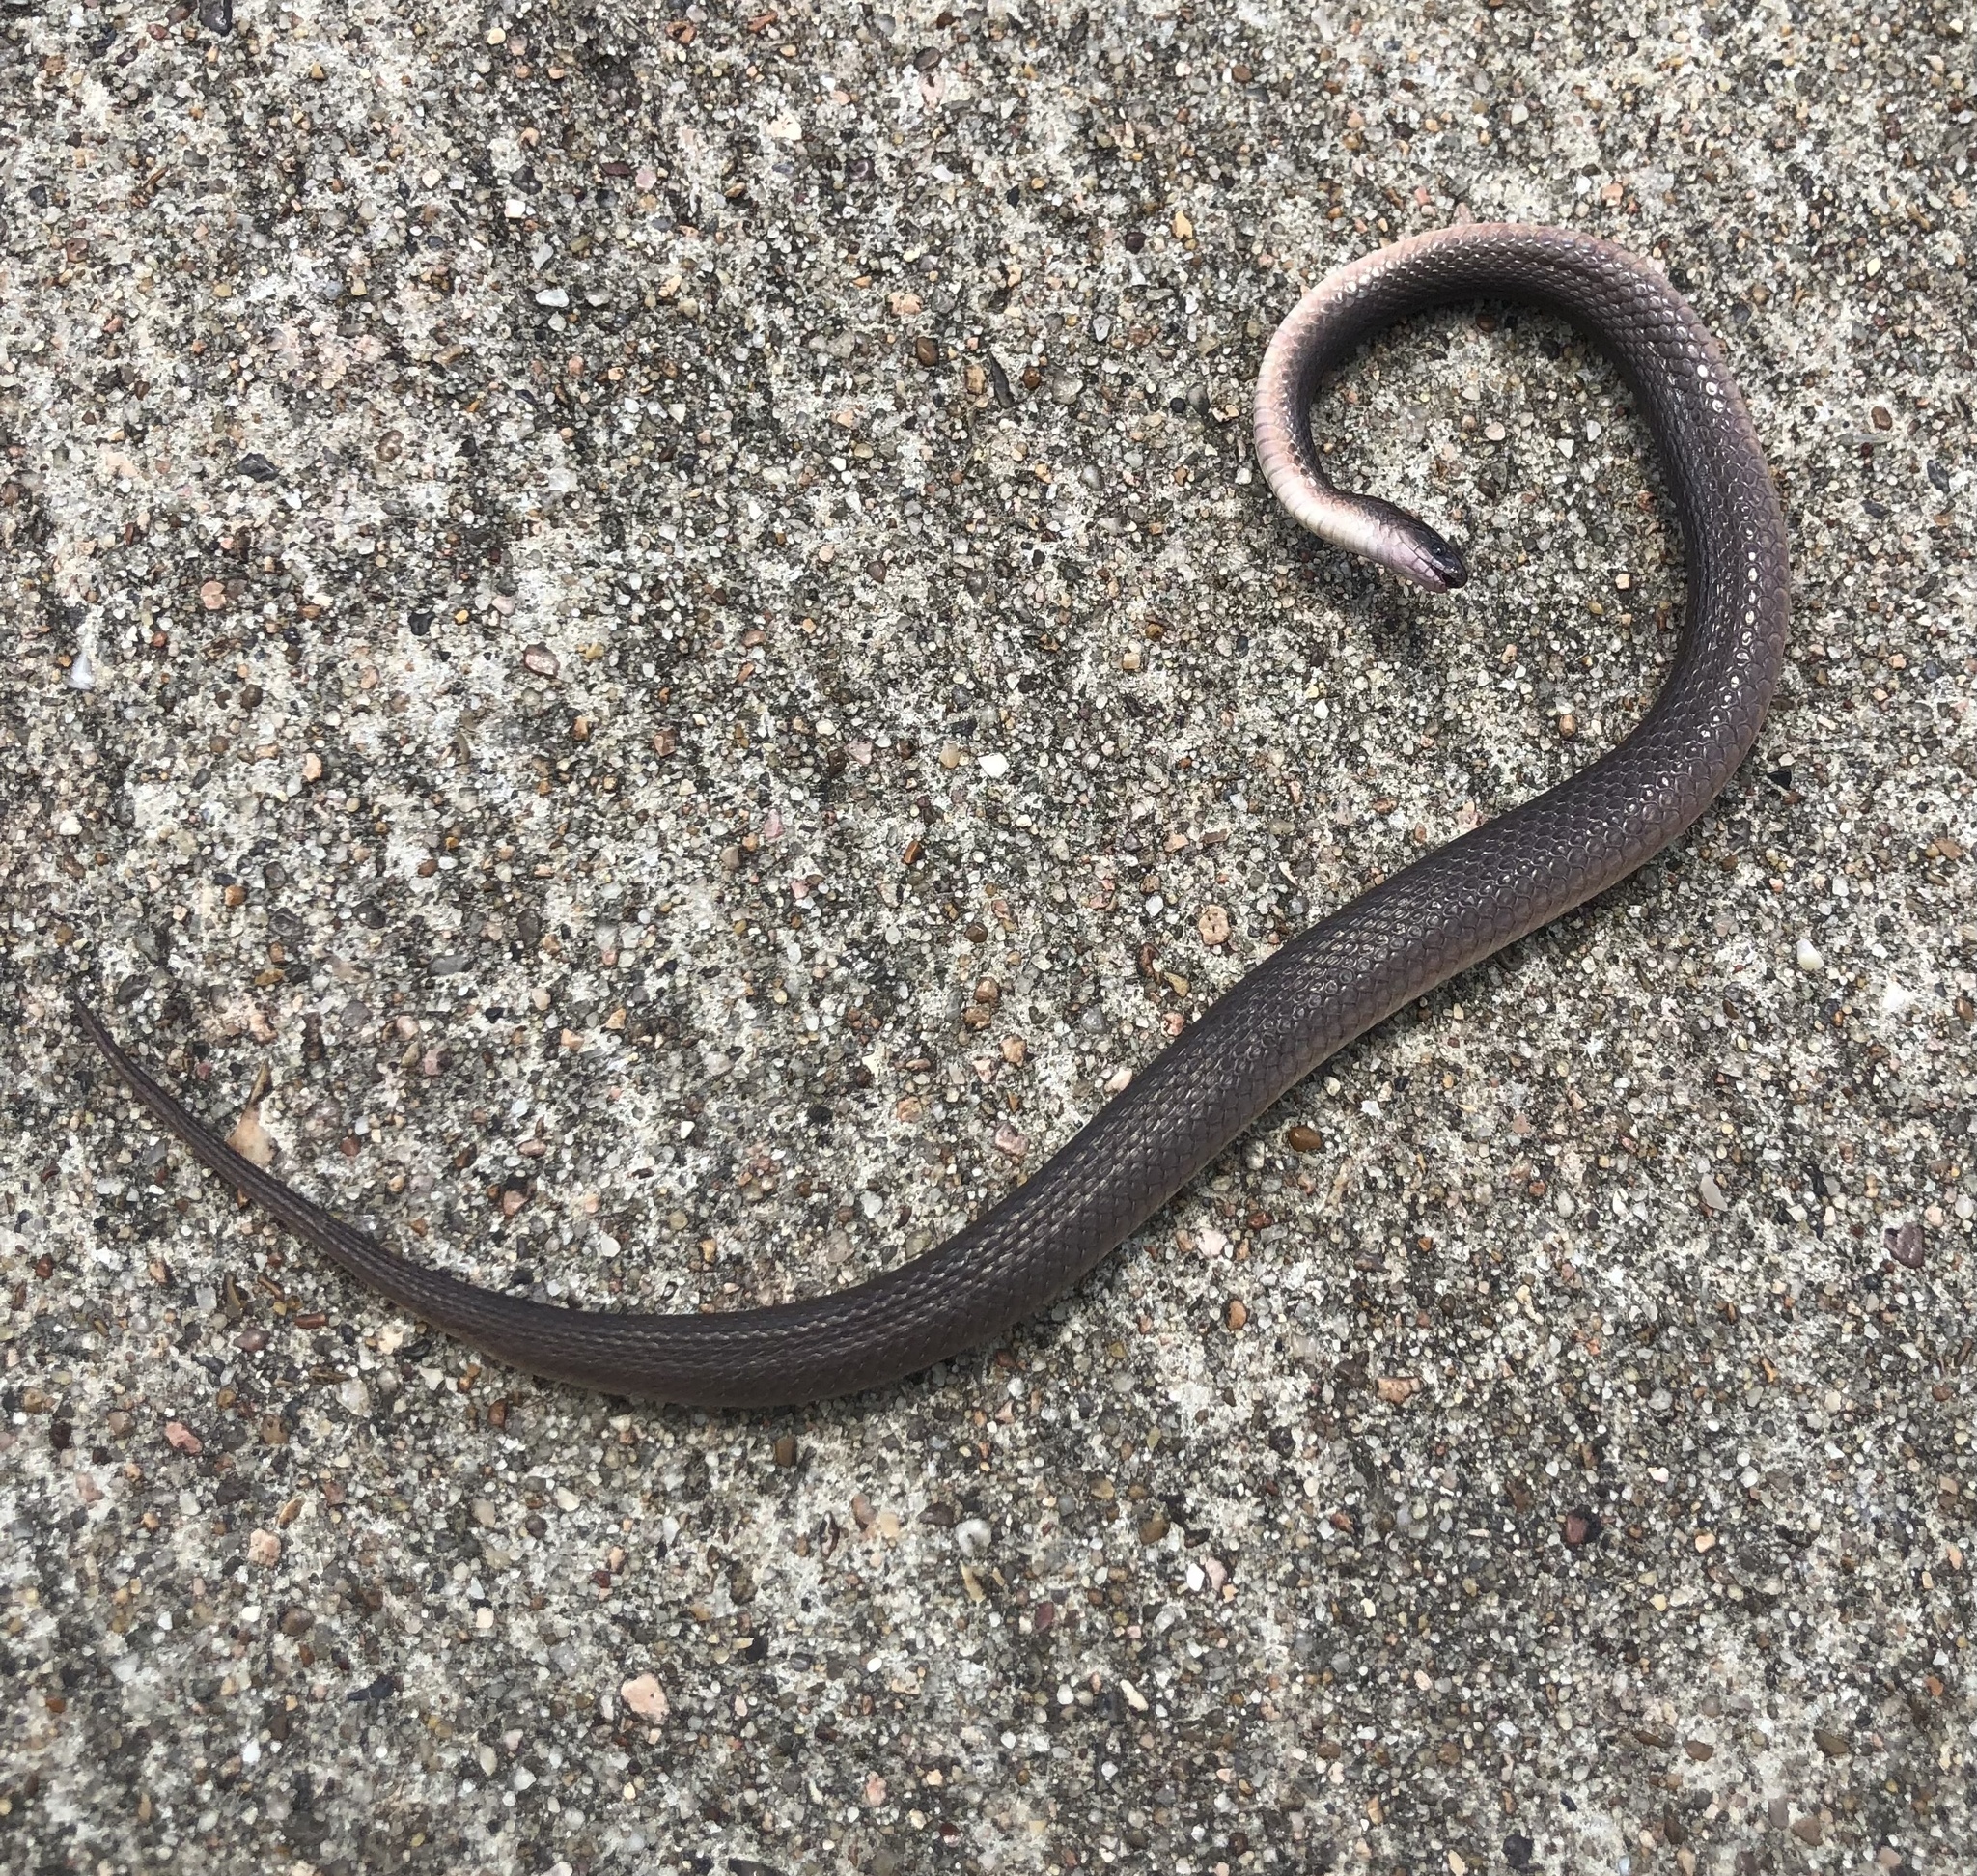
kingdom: Animalia
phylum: Chordata
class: Squamata
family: Colubridae
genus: Haldea
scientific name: Haldea striatula
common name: Rough earth snake
